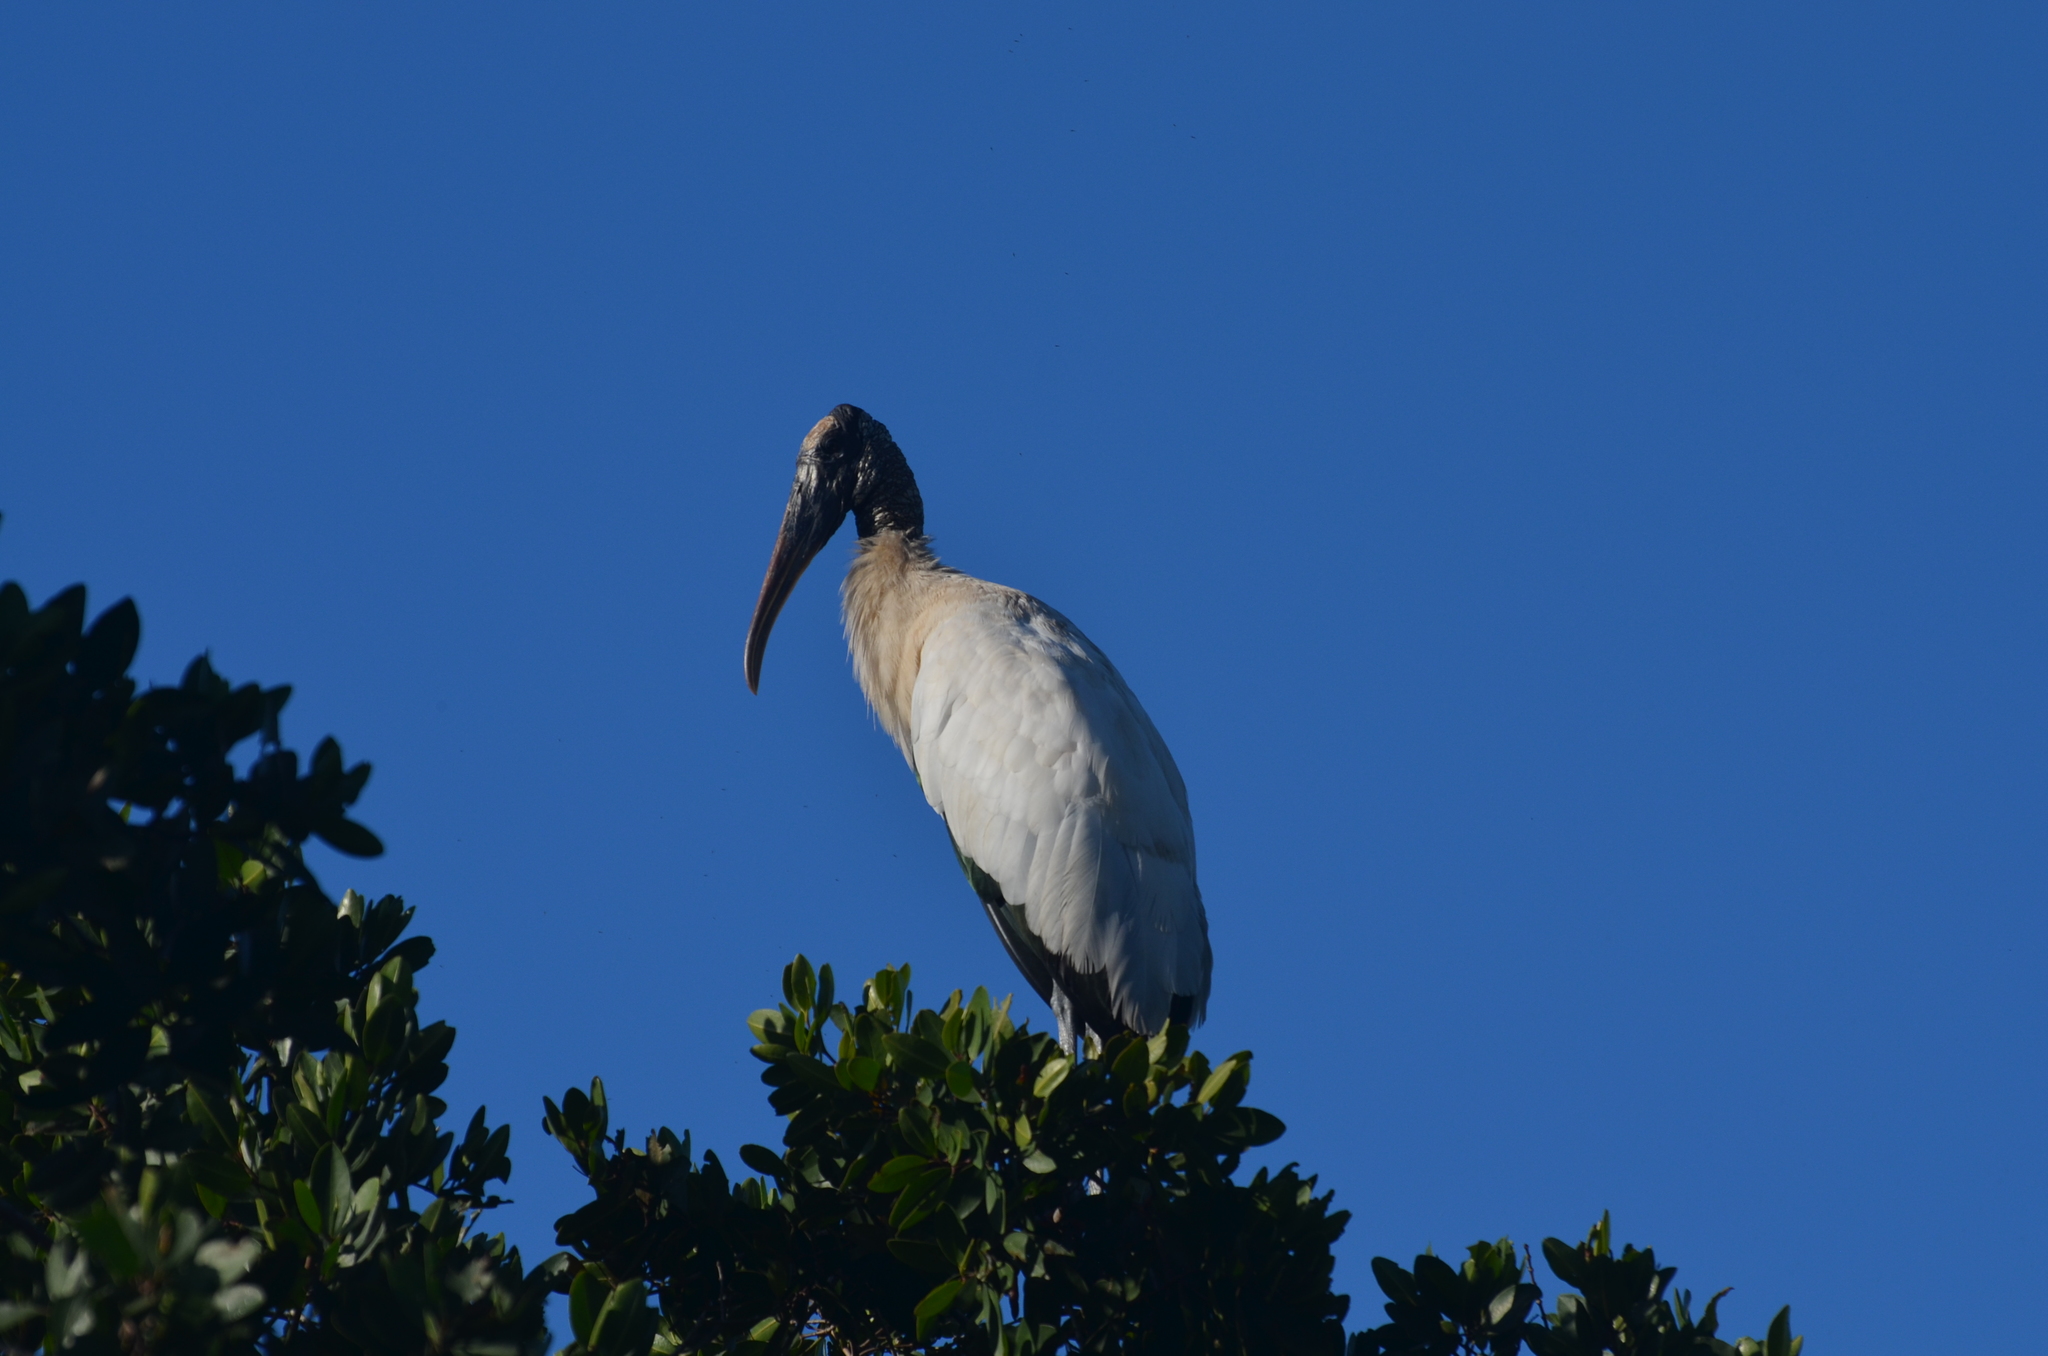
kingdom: Animalia
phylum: Chordata
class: Aves
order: Ciconiiformes
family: Ciconiidae
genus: Mycteria
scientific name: Mycteria americana
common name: Wood stork
